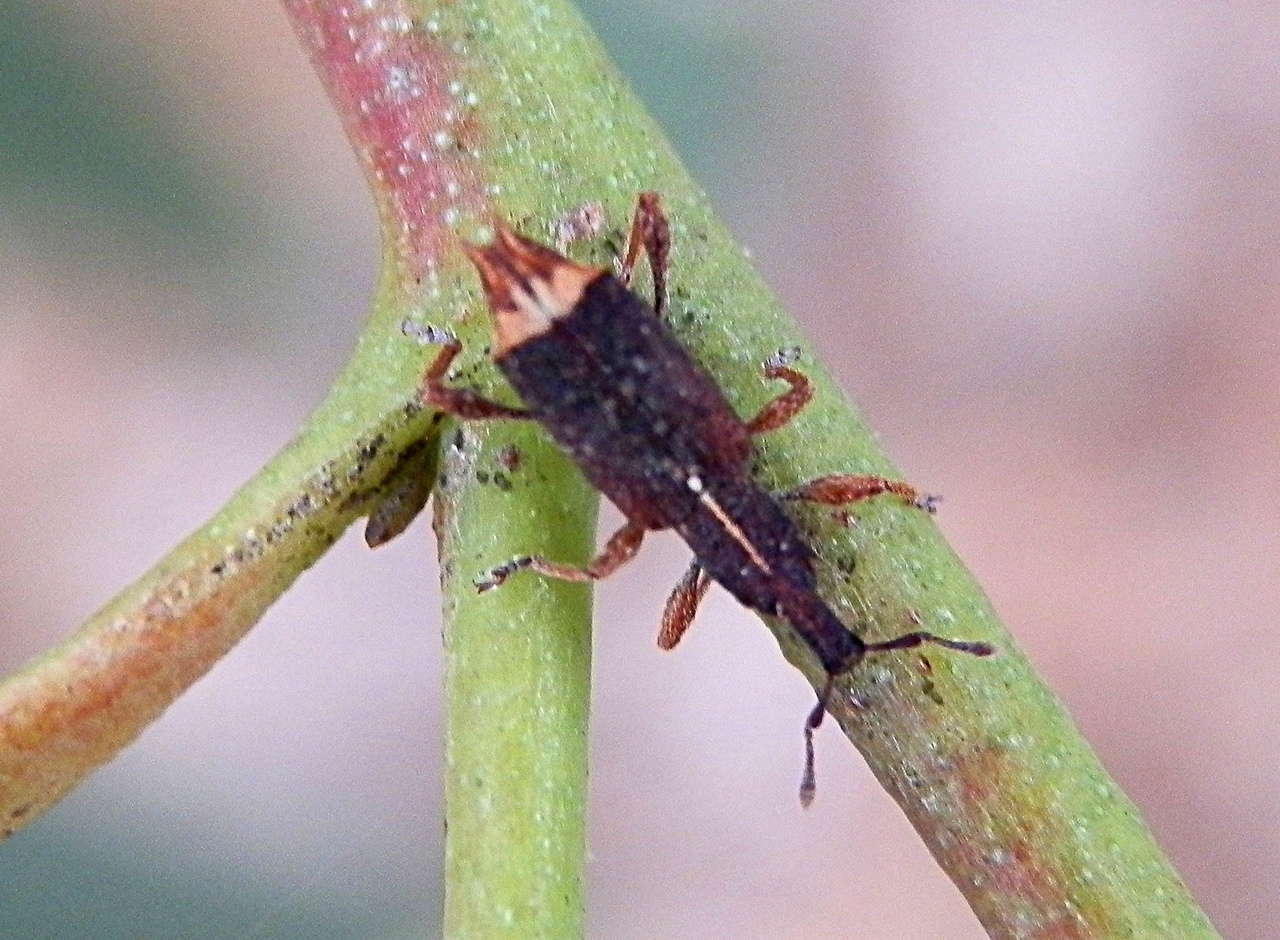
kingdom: Animalia
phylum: Arthropoda
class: Insecta
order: Coleoptera
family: Curculionidae
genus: Methypora
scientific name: Methypora postica
